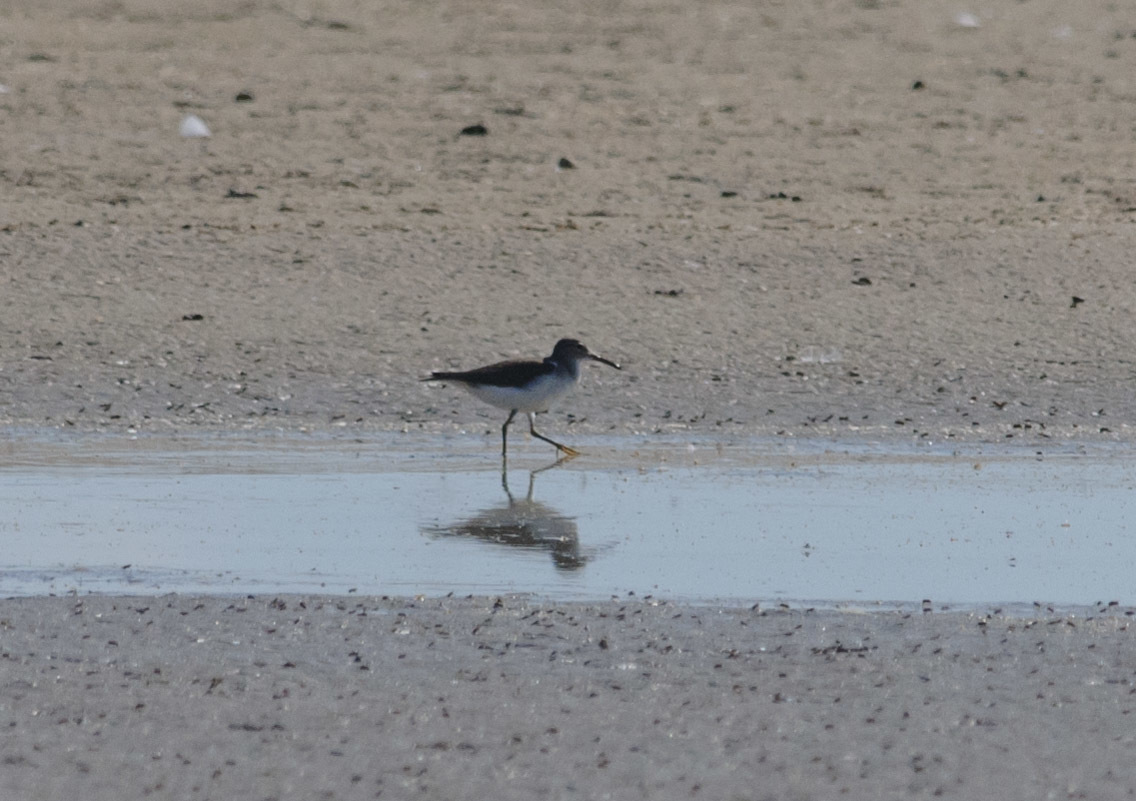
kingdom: Animalia
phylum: Chordata
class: Aves
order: Charadriiformes
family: Scolopacidae
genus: Actitis
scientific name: Actitis macularius
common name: Spotted sandpiper
